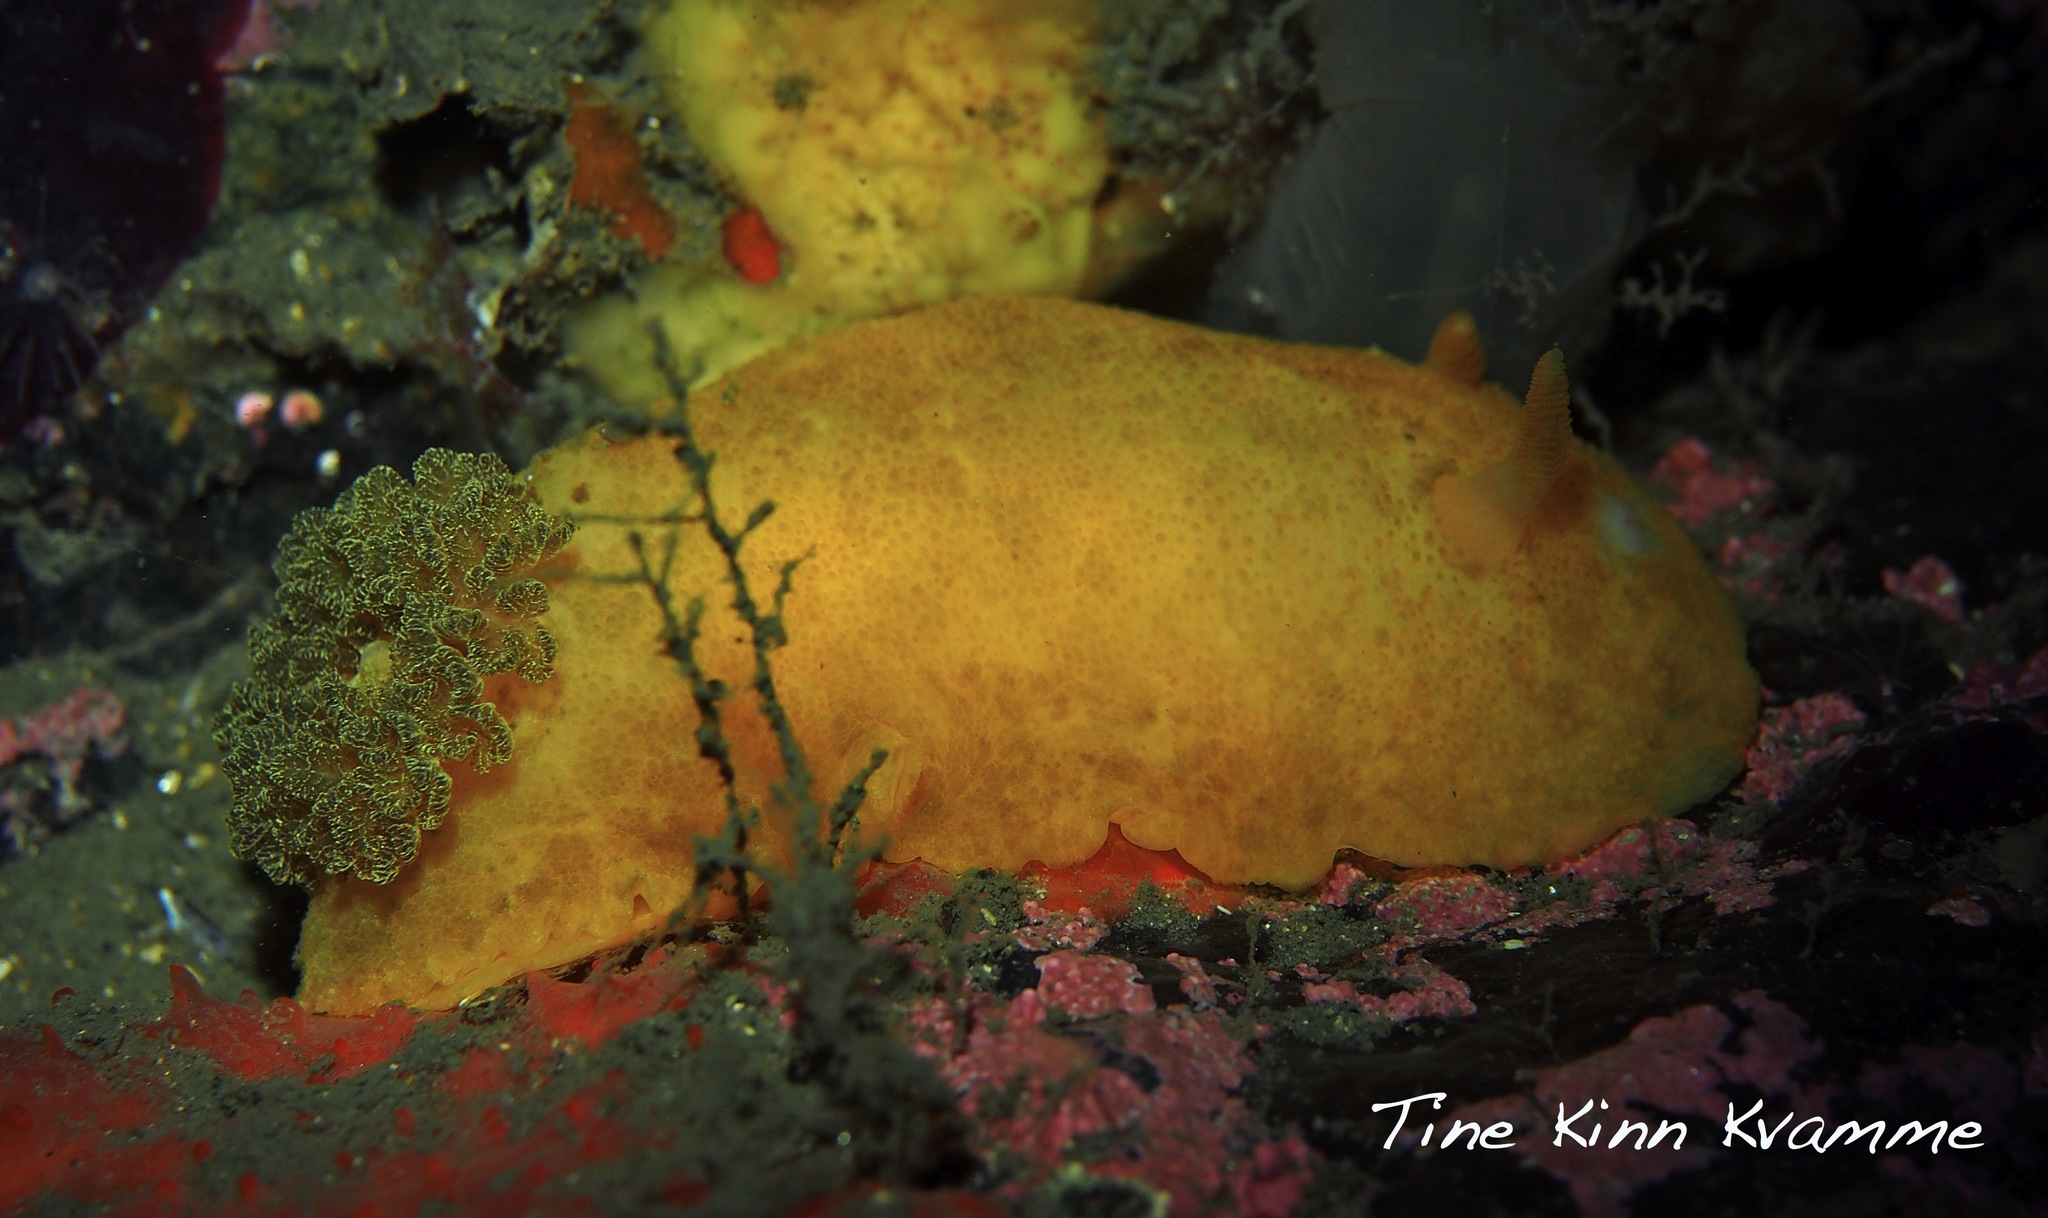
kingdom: Animalia
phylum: Mollusca
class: Gastropoda
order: Nudibranchia
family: Dorididae
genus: Doris
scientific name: Doris pseudoargus
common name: Sea lemon
